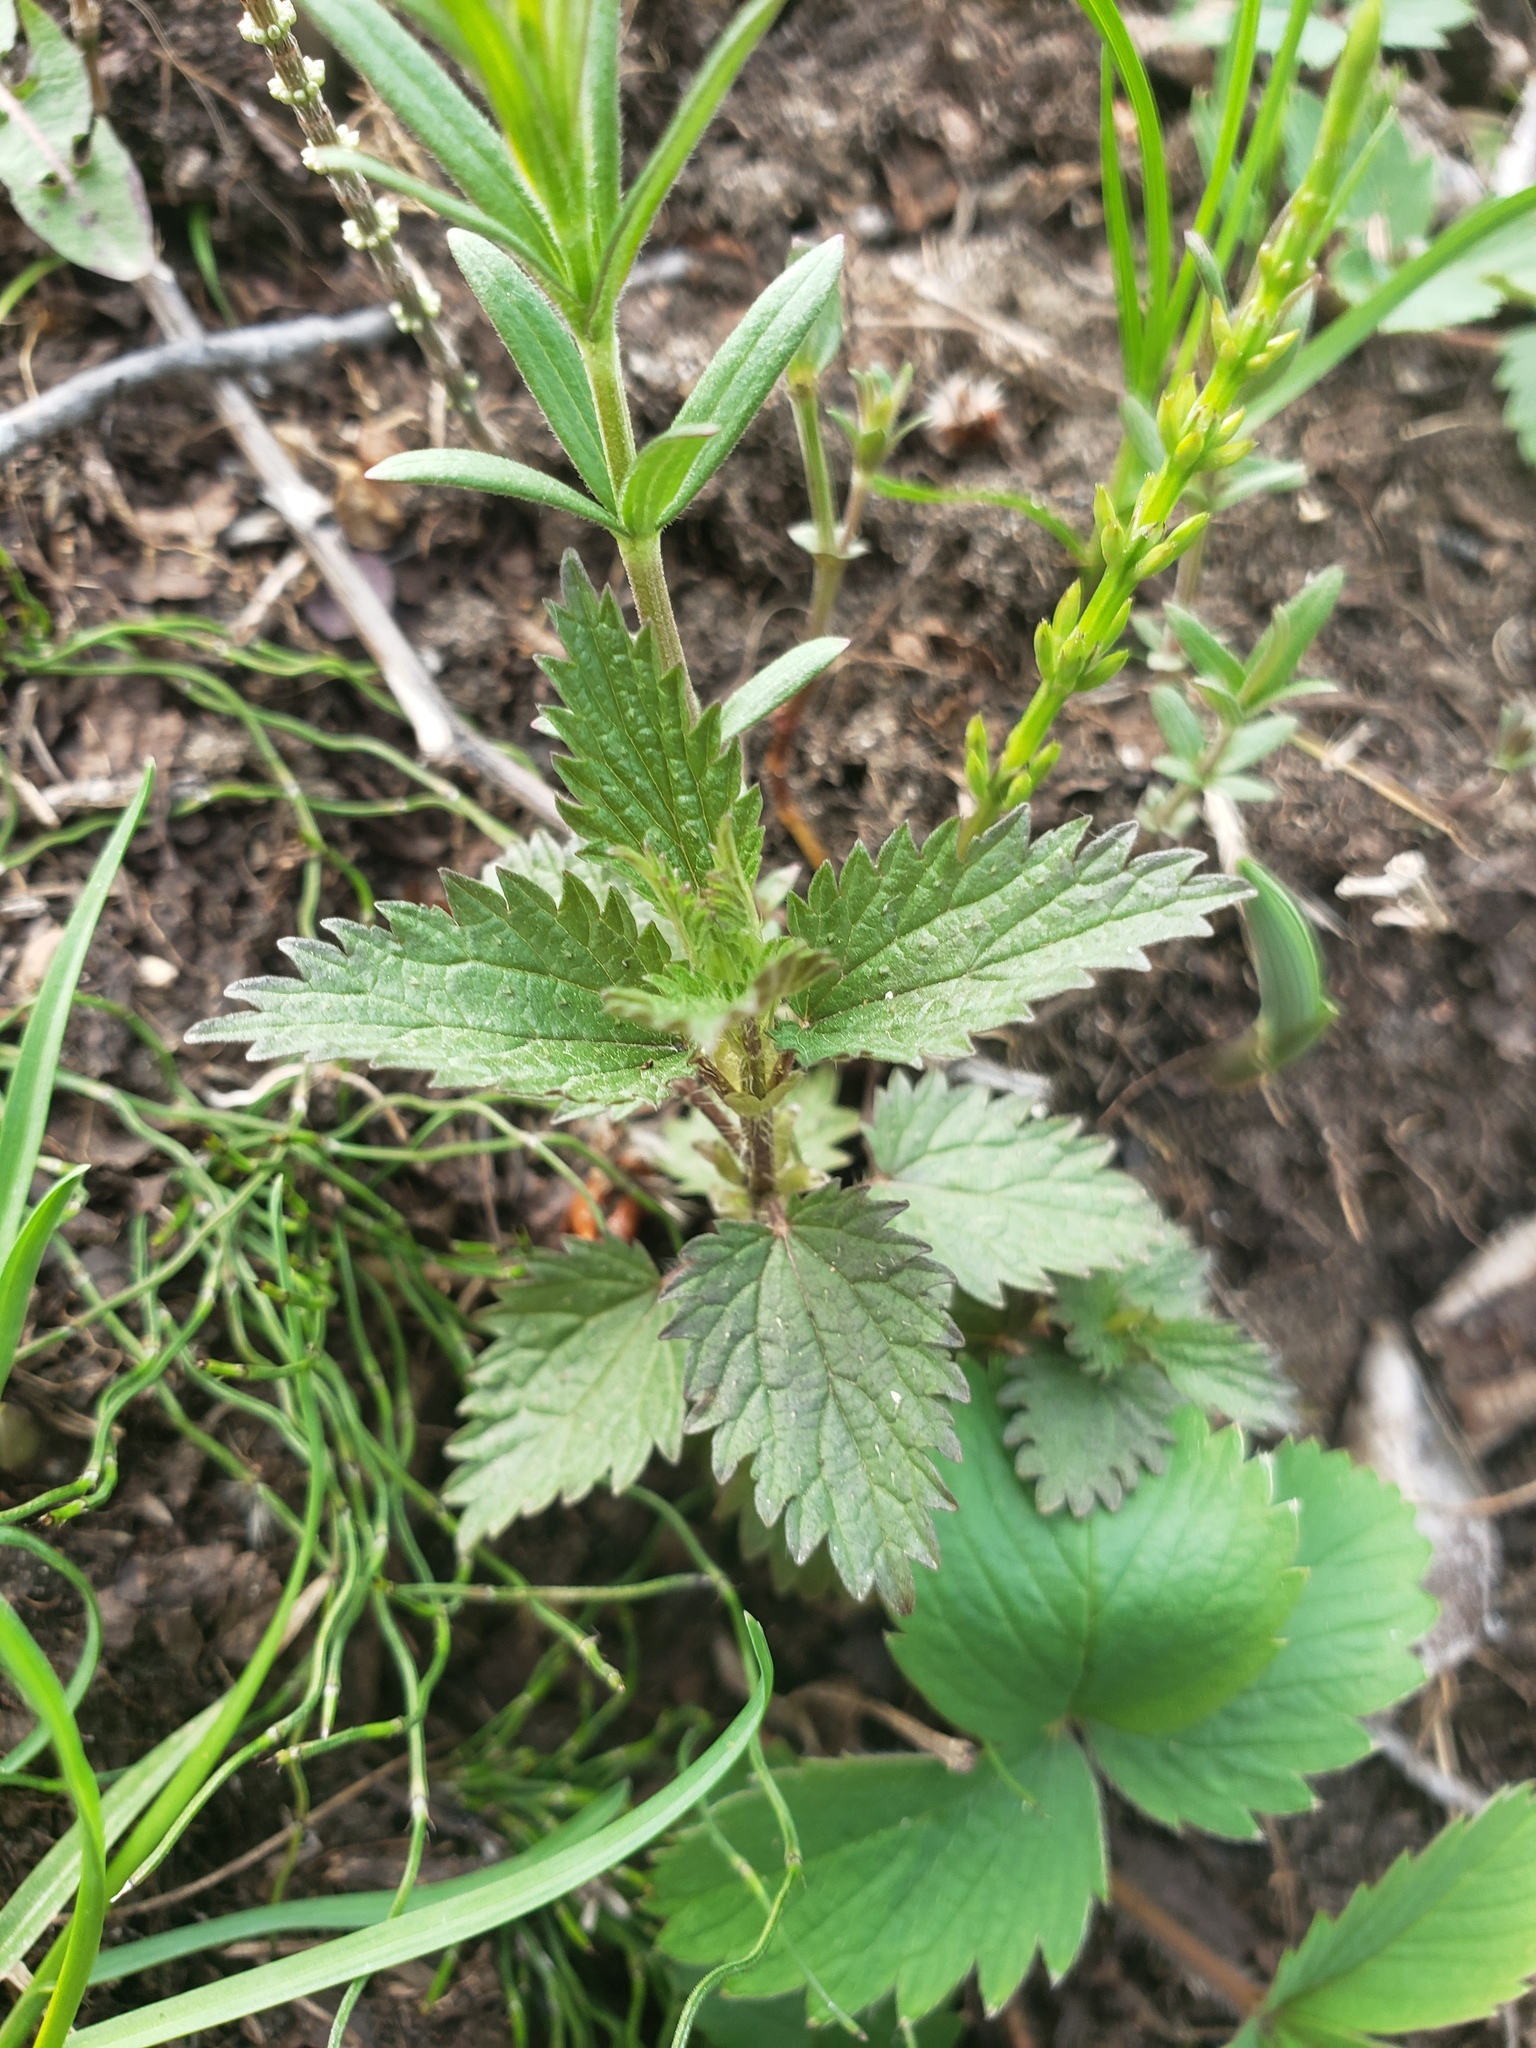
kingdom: Plantae
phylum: Tracheophyta
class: Magnoliopsida
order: Rosales
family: Urticaceae
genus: Urtica
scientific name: Urtica gracilis
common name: Slender stinging nettle
